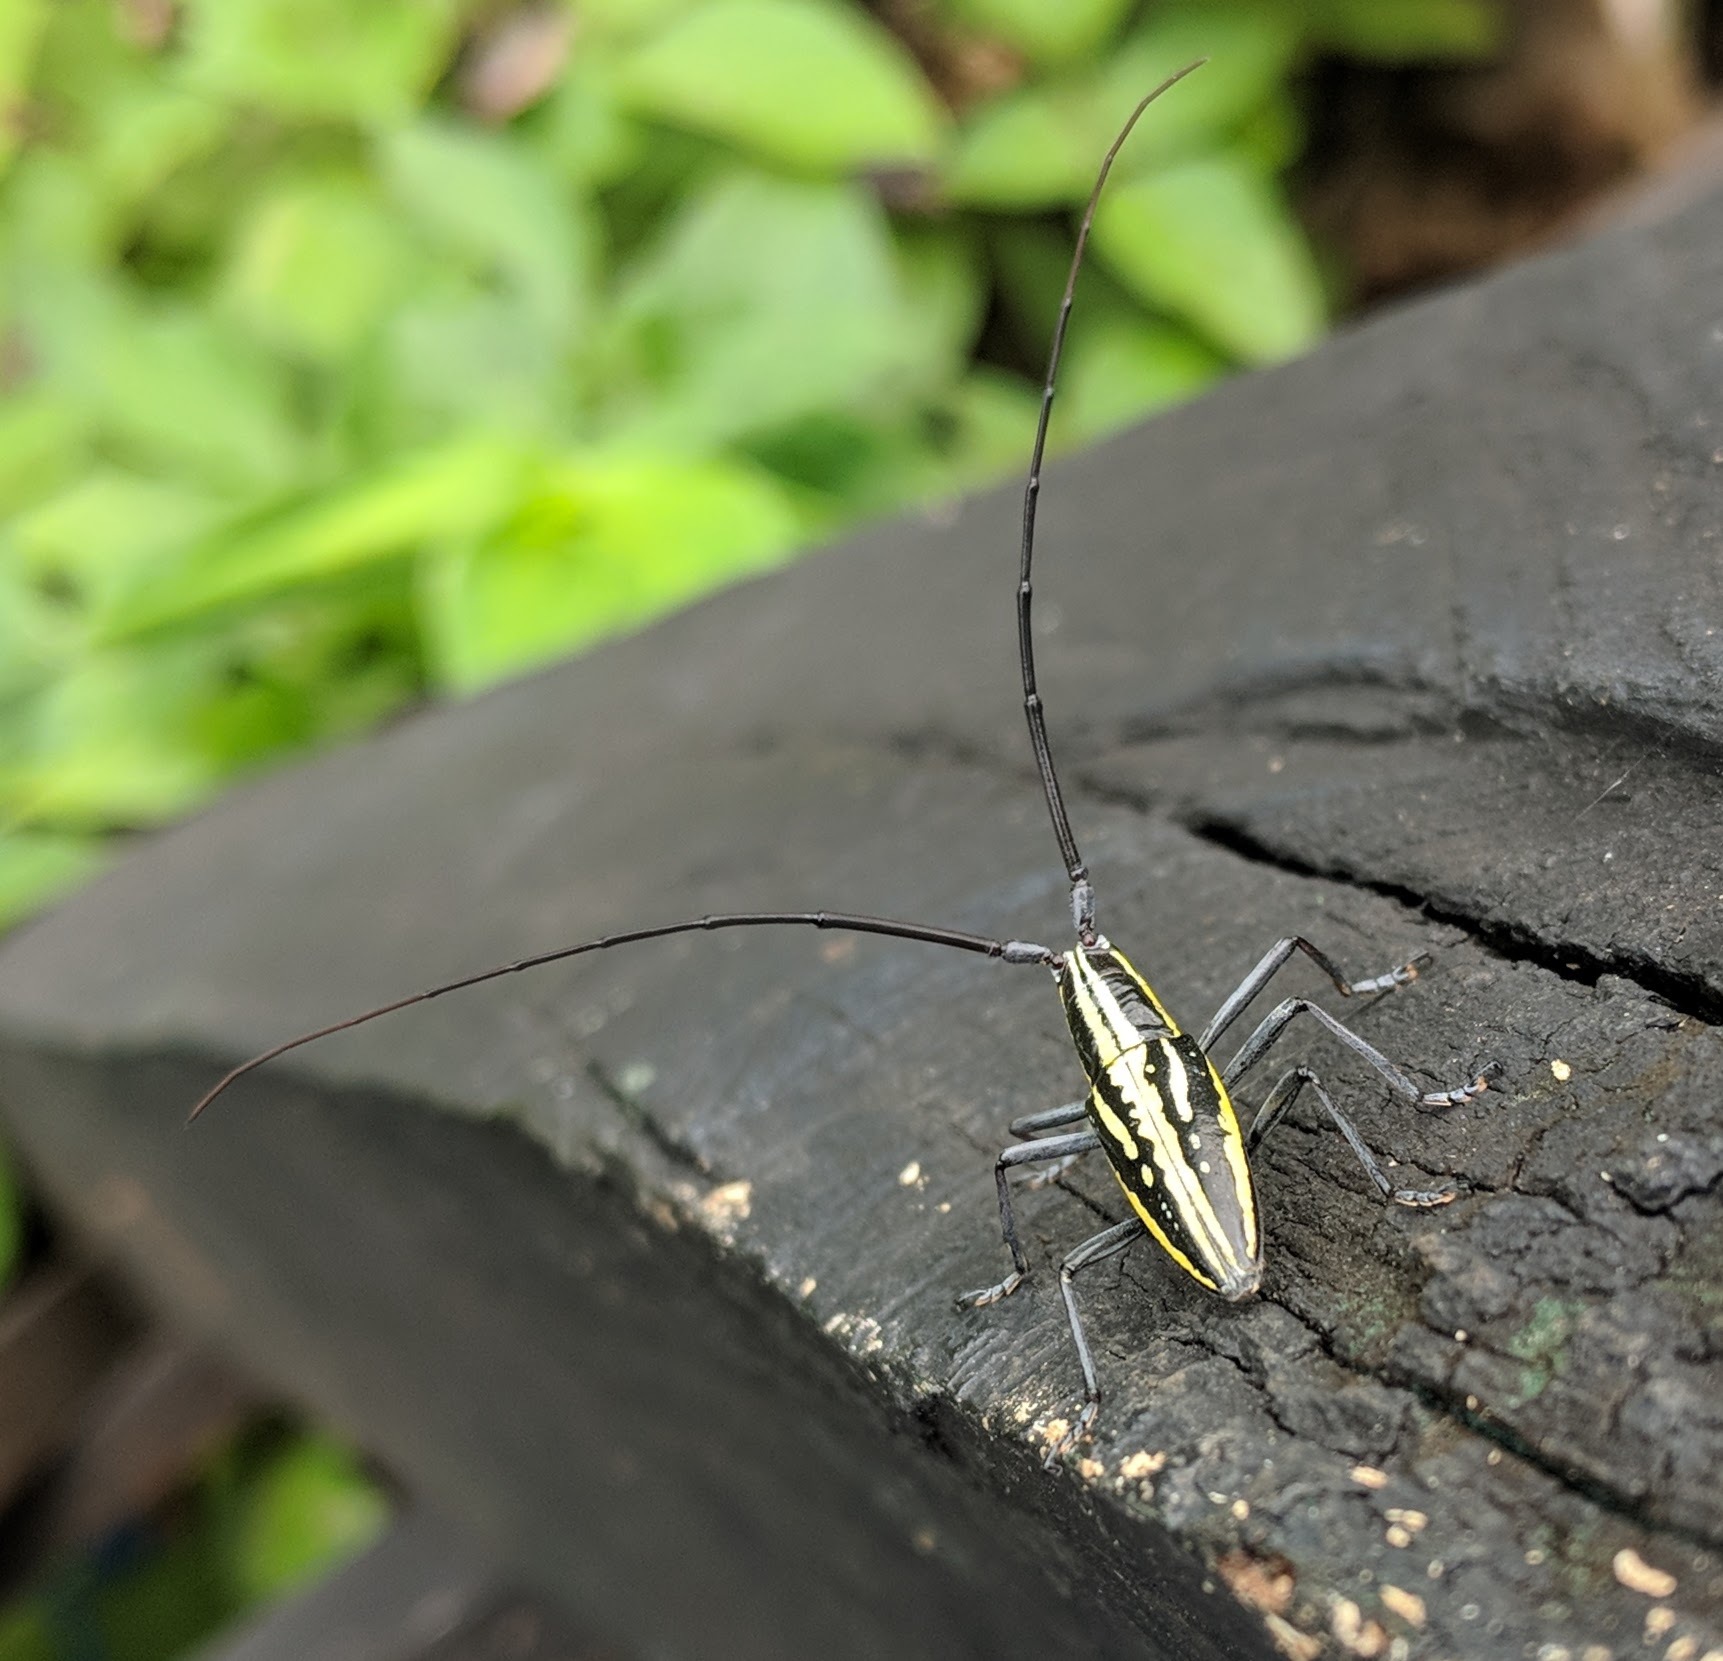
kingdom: Animalia
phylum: Arthropoda
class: Insecta
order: Coleoptera
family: Cerambycidae
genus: Ptychodes
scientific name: Ptychodes politus
